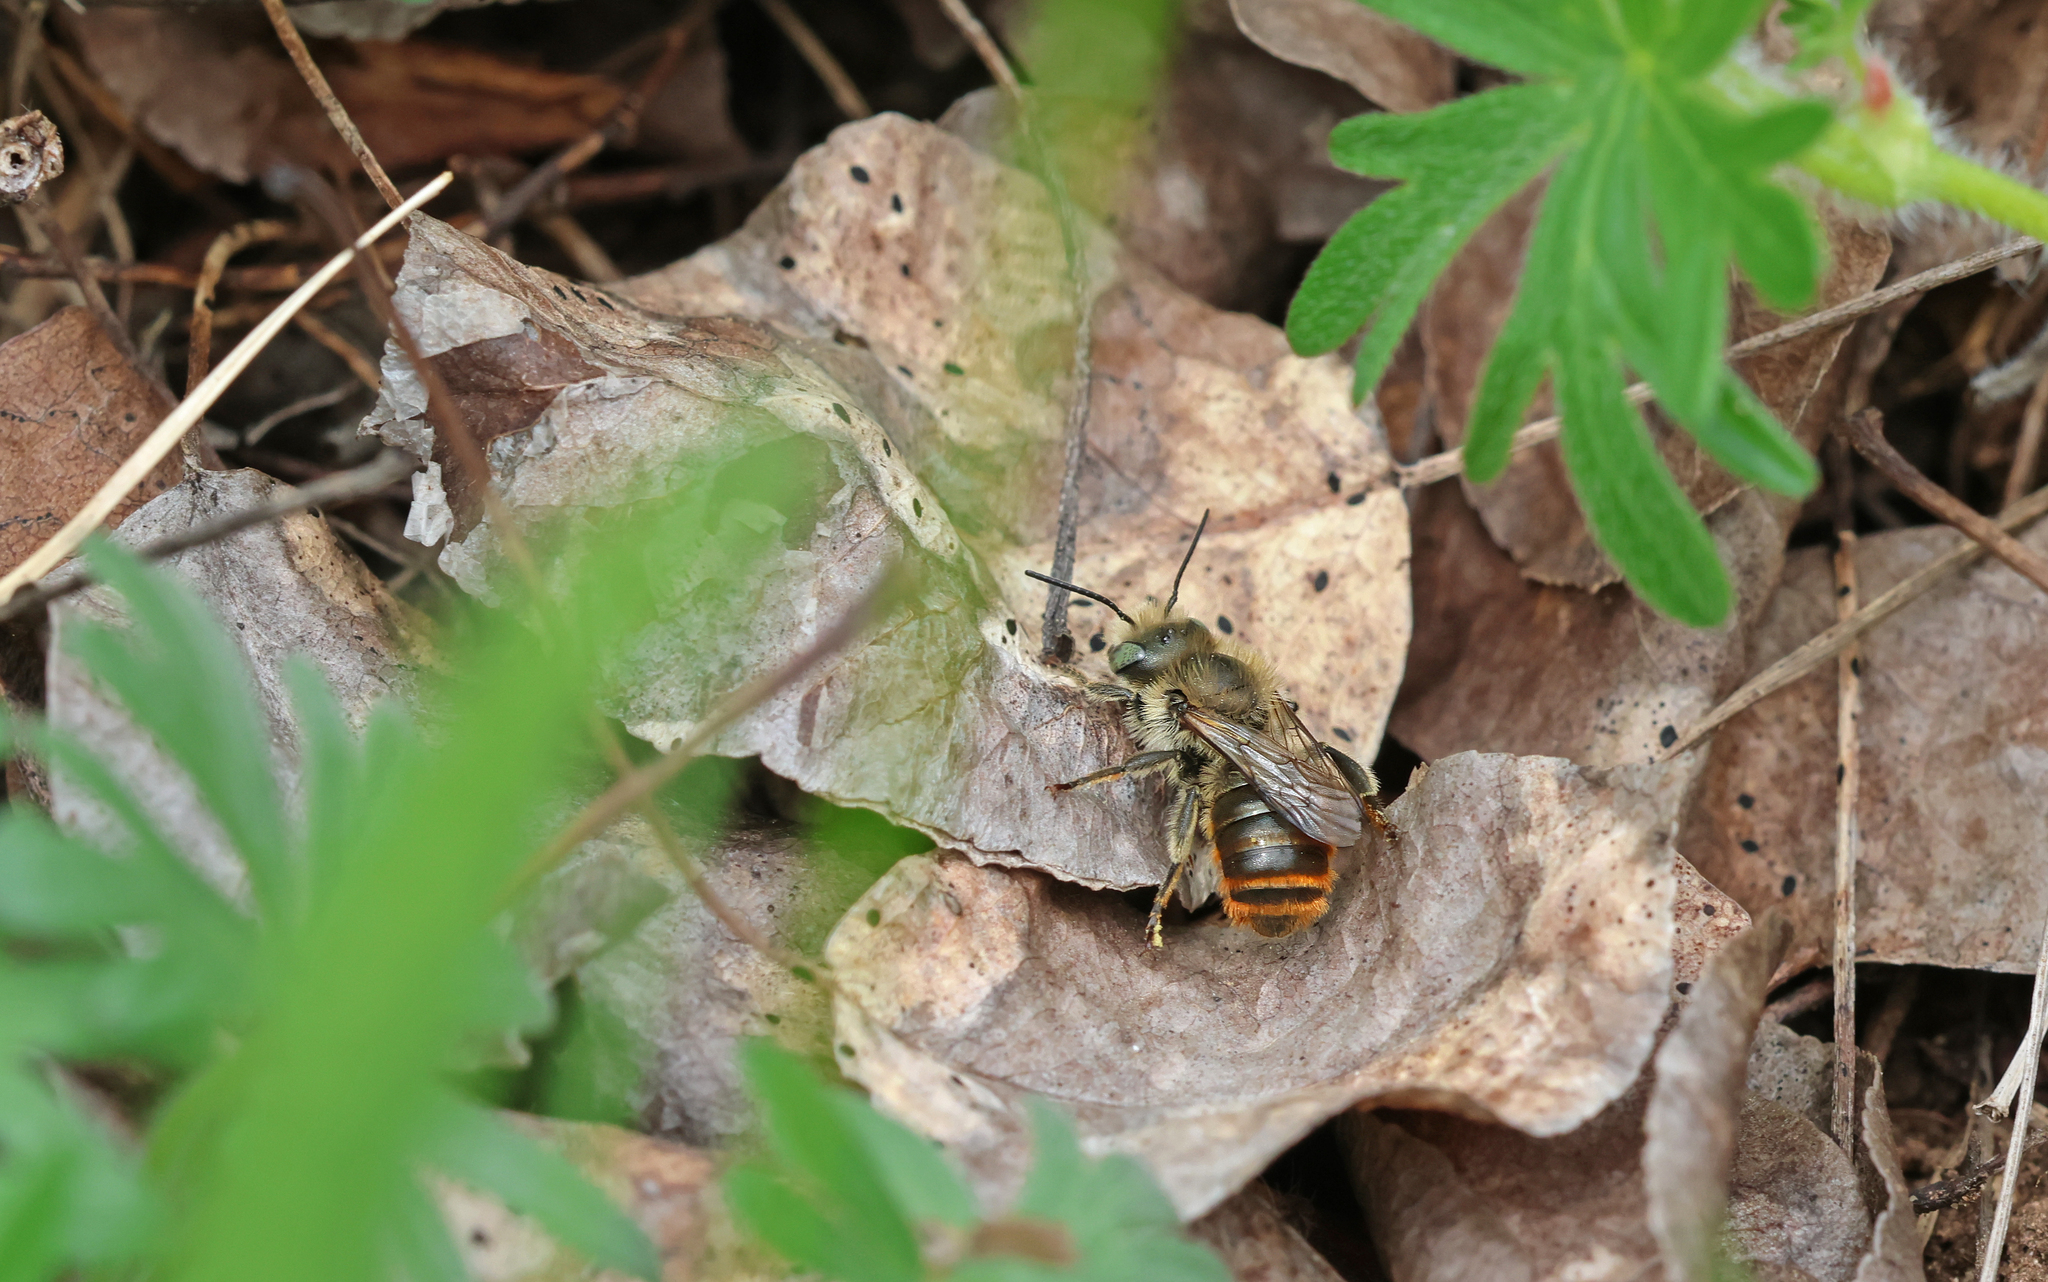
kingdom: Animalia
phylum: Arthropoda
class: Insecta
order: Hymenoptera
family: Megachilidae
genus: Osmia
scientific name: Osmia aurulenta
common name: Gold-fringed mason bee
